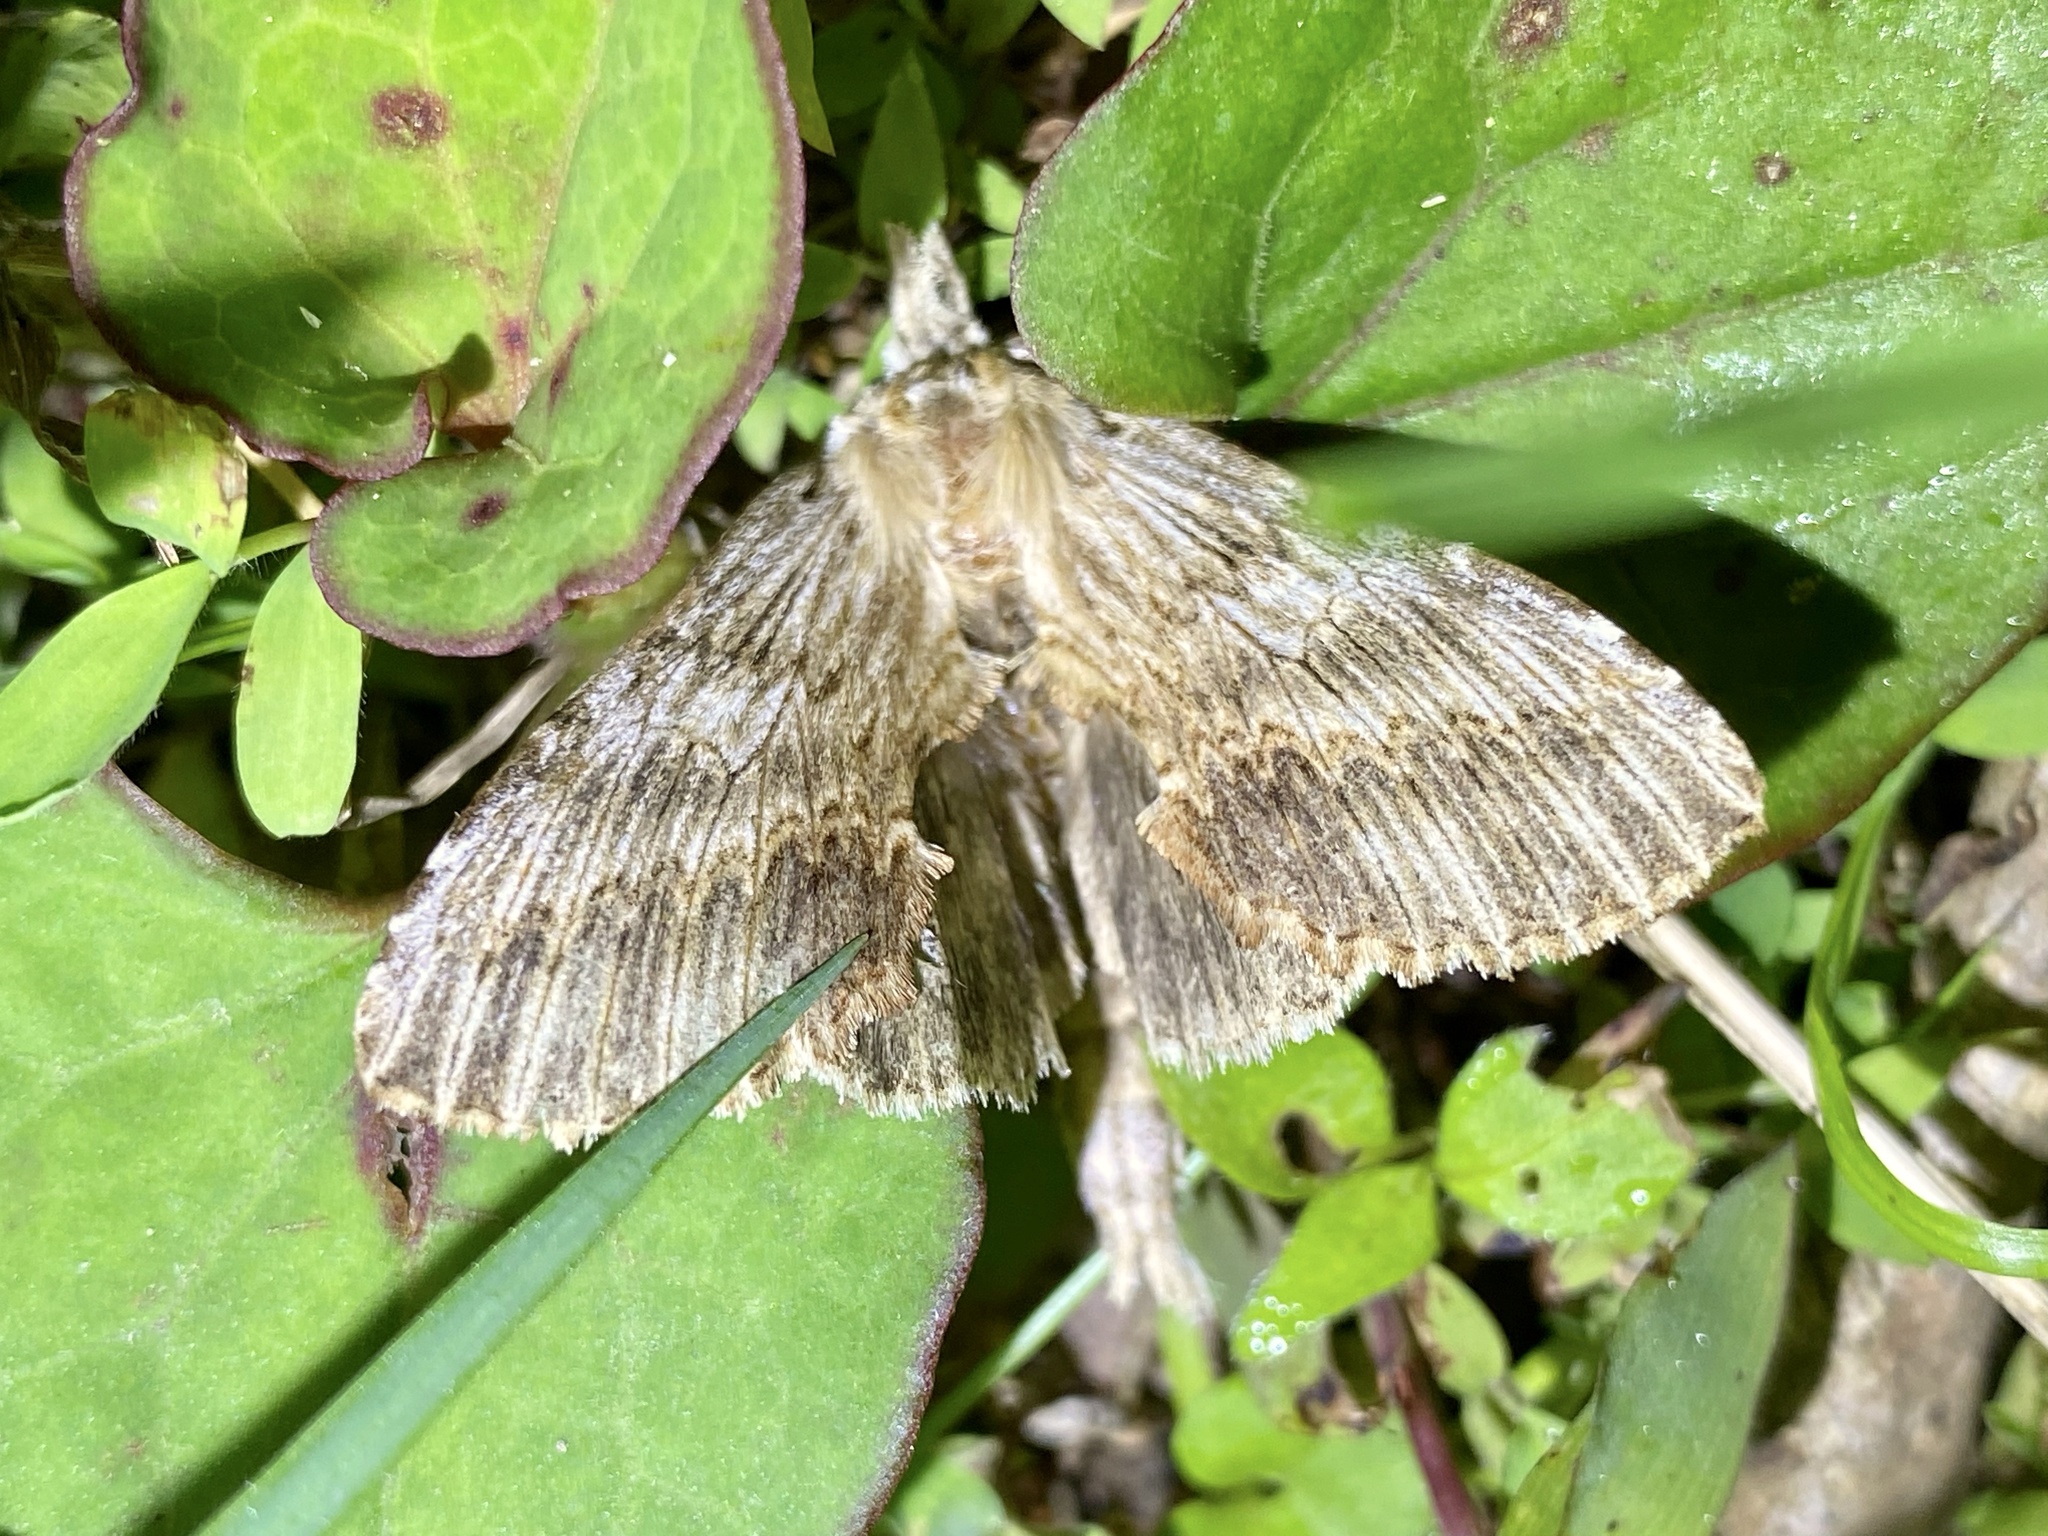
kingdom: Animalia
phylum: Arthropoda
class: Insecta
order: Lepidoptera
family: Notodontidae
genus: Pterostoma
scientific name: Pterostoma gigantina
